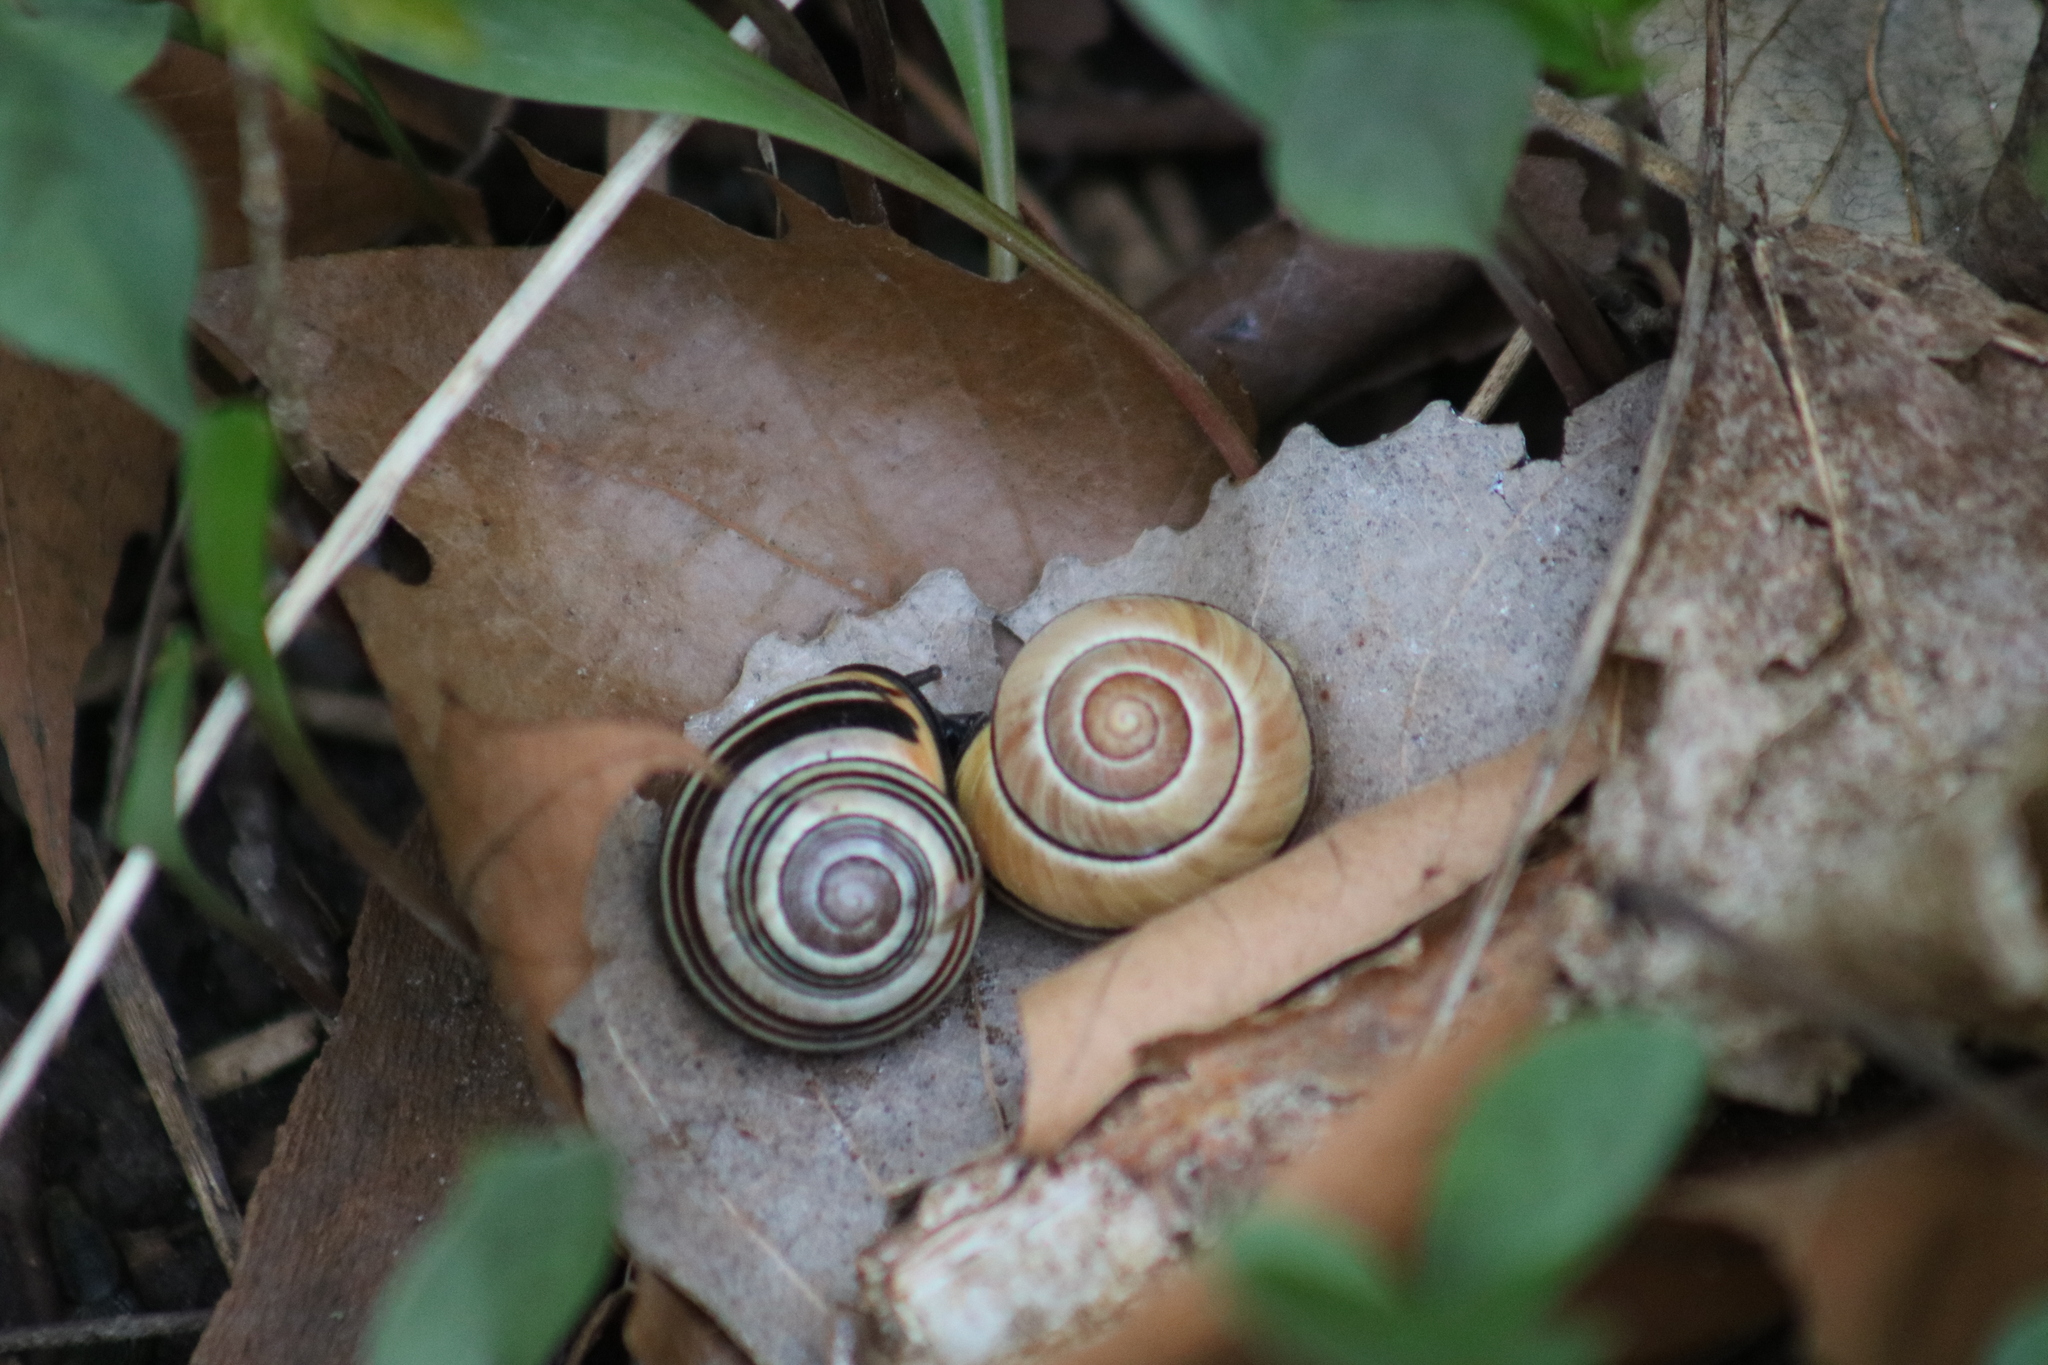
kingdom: Animalia
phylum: Mollusca
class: Gastropoda
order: Stylommatophora
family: Helicidae
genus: Cepaea
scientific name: Cepaea nemoralis
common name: Grovesnail
